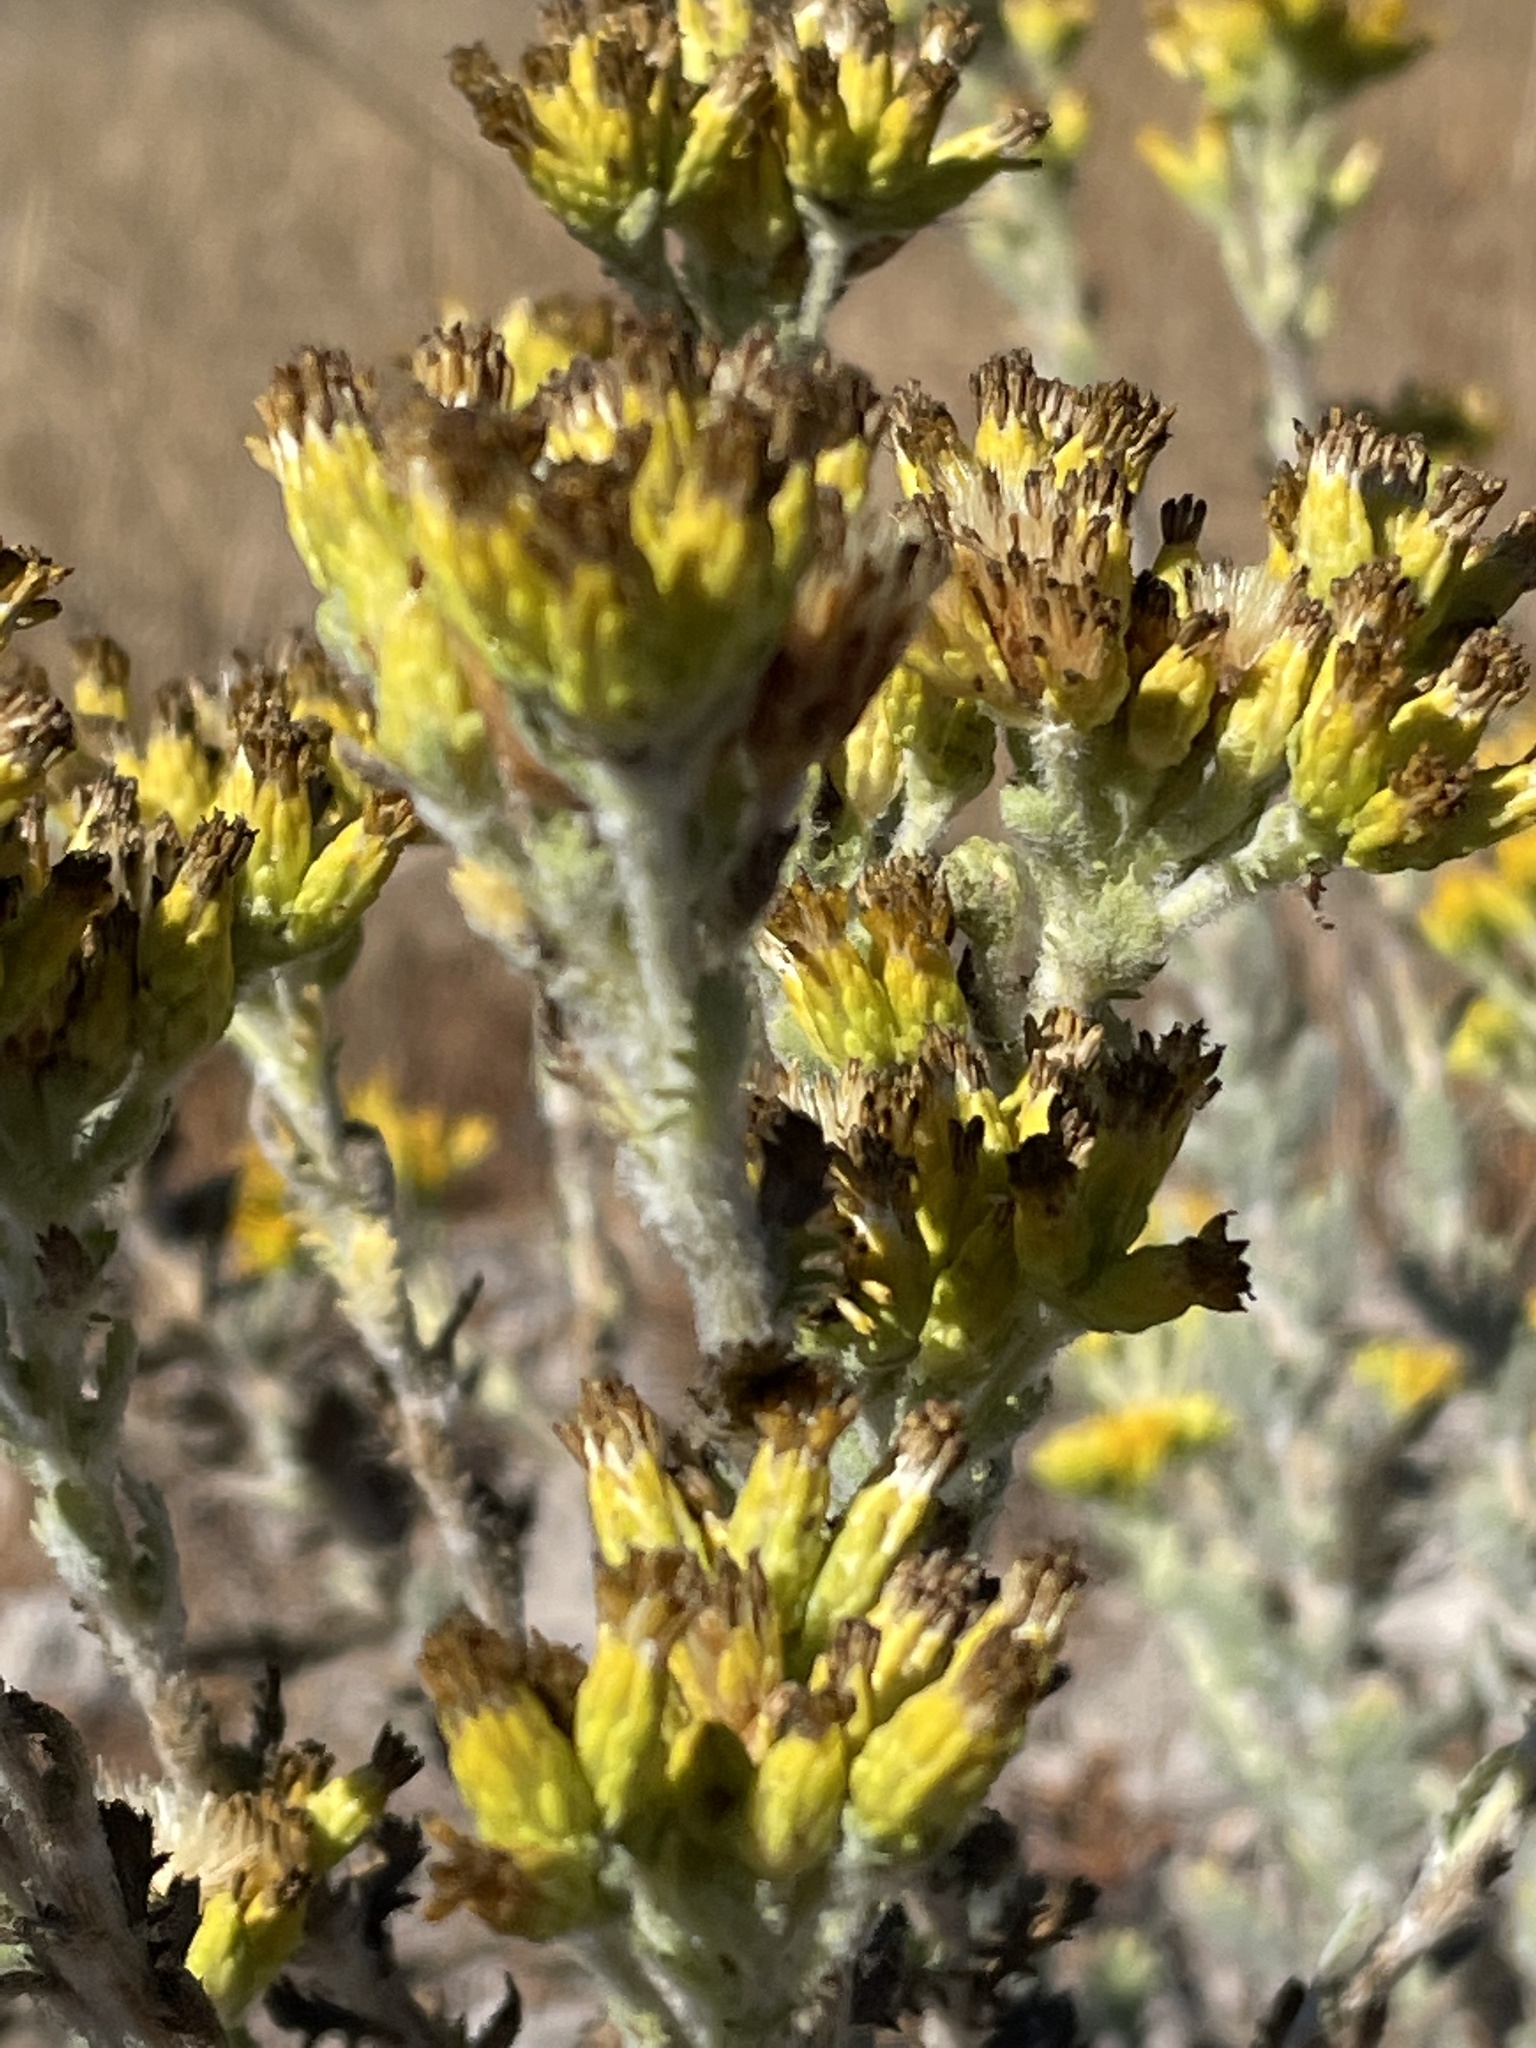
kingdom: Plantae
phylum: Tracheophyta
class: Magnoliopsida
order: Asterales
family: Asteraceae
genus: Isocoma
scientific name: Isocoma menziesii
